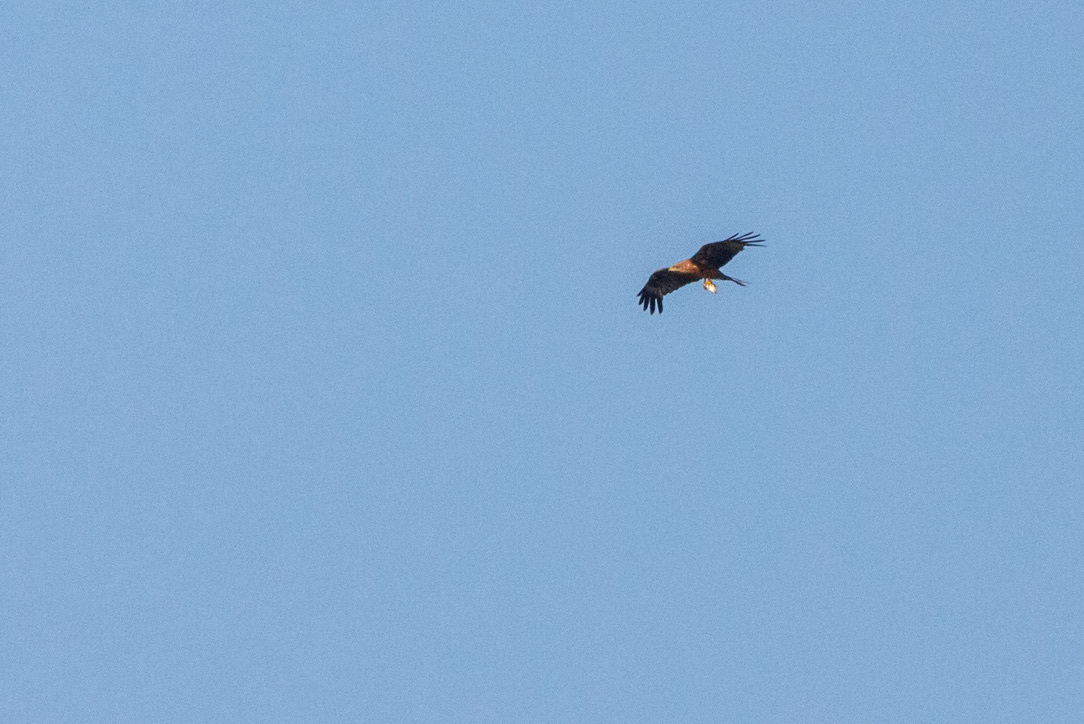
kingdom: Animalia
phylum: Chordata
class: Aves
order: Accipitriformes
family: Accipitridae
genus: Milvus
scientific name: Milvus migrans
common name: Black kite
